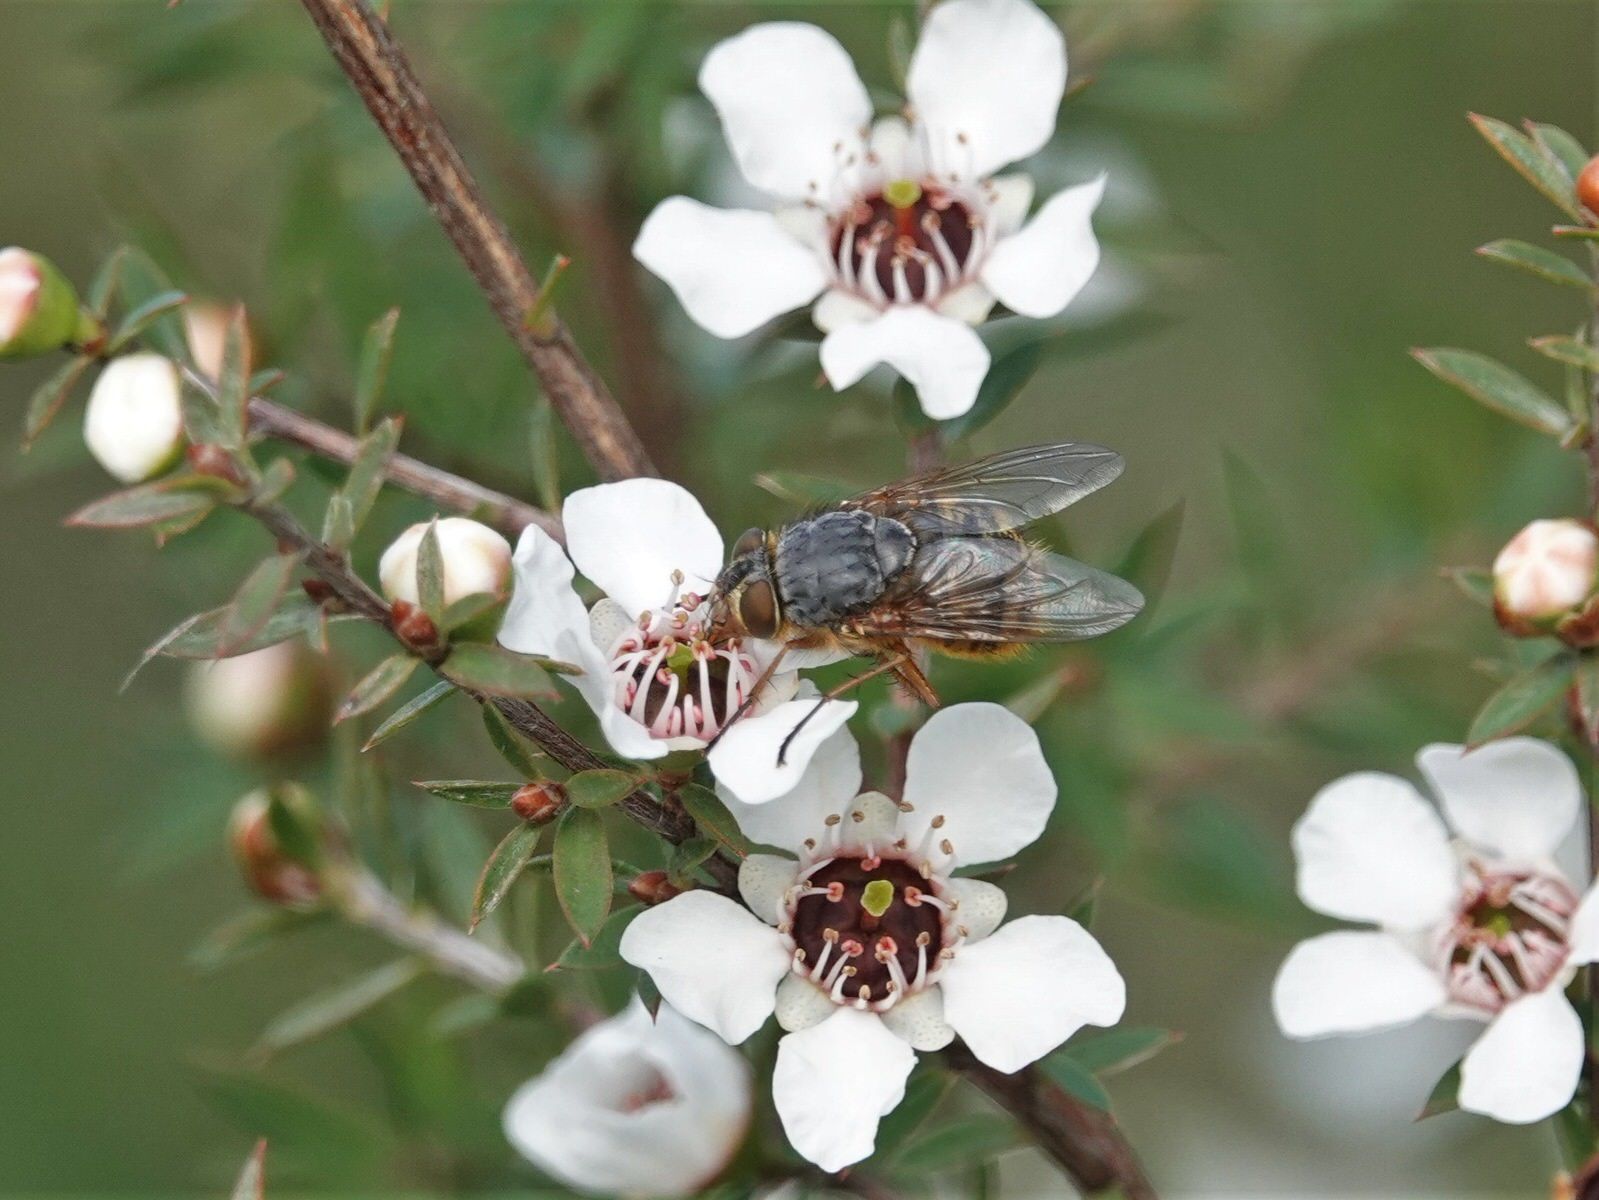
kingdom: Animalia
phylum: Arthropoda
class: Insecta
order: Diptera
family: Calliphoridae
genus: Calliphora
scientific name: Calliphora hilli
